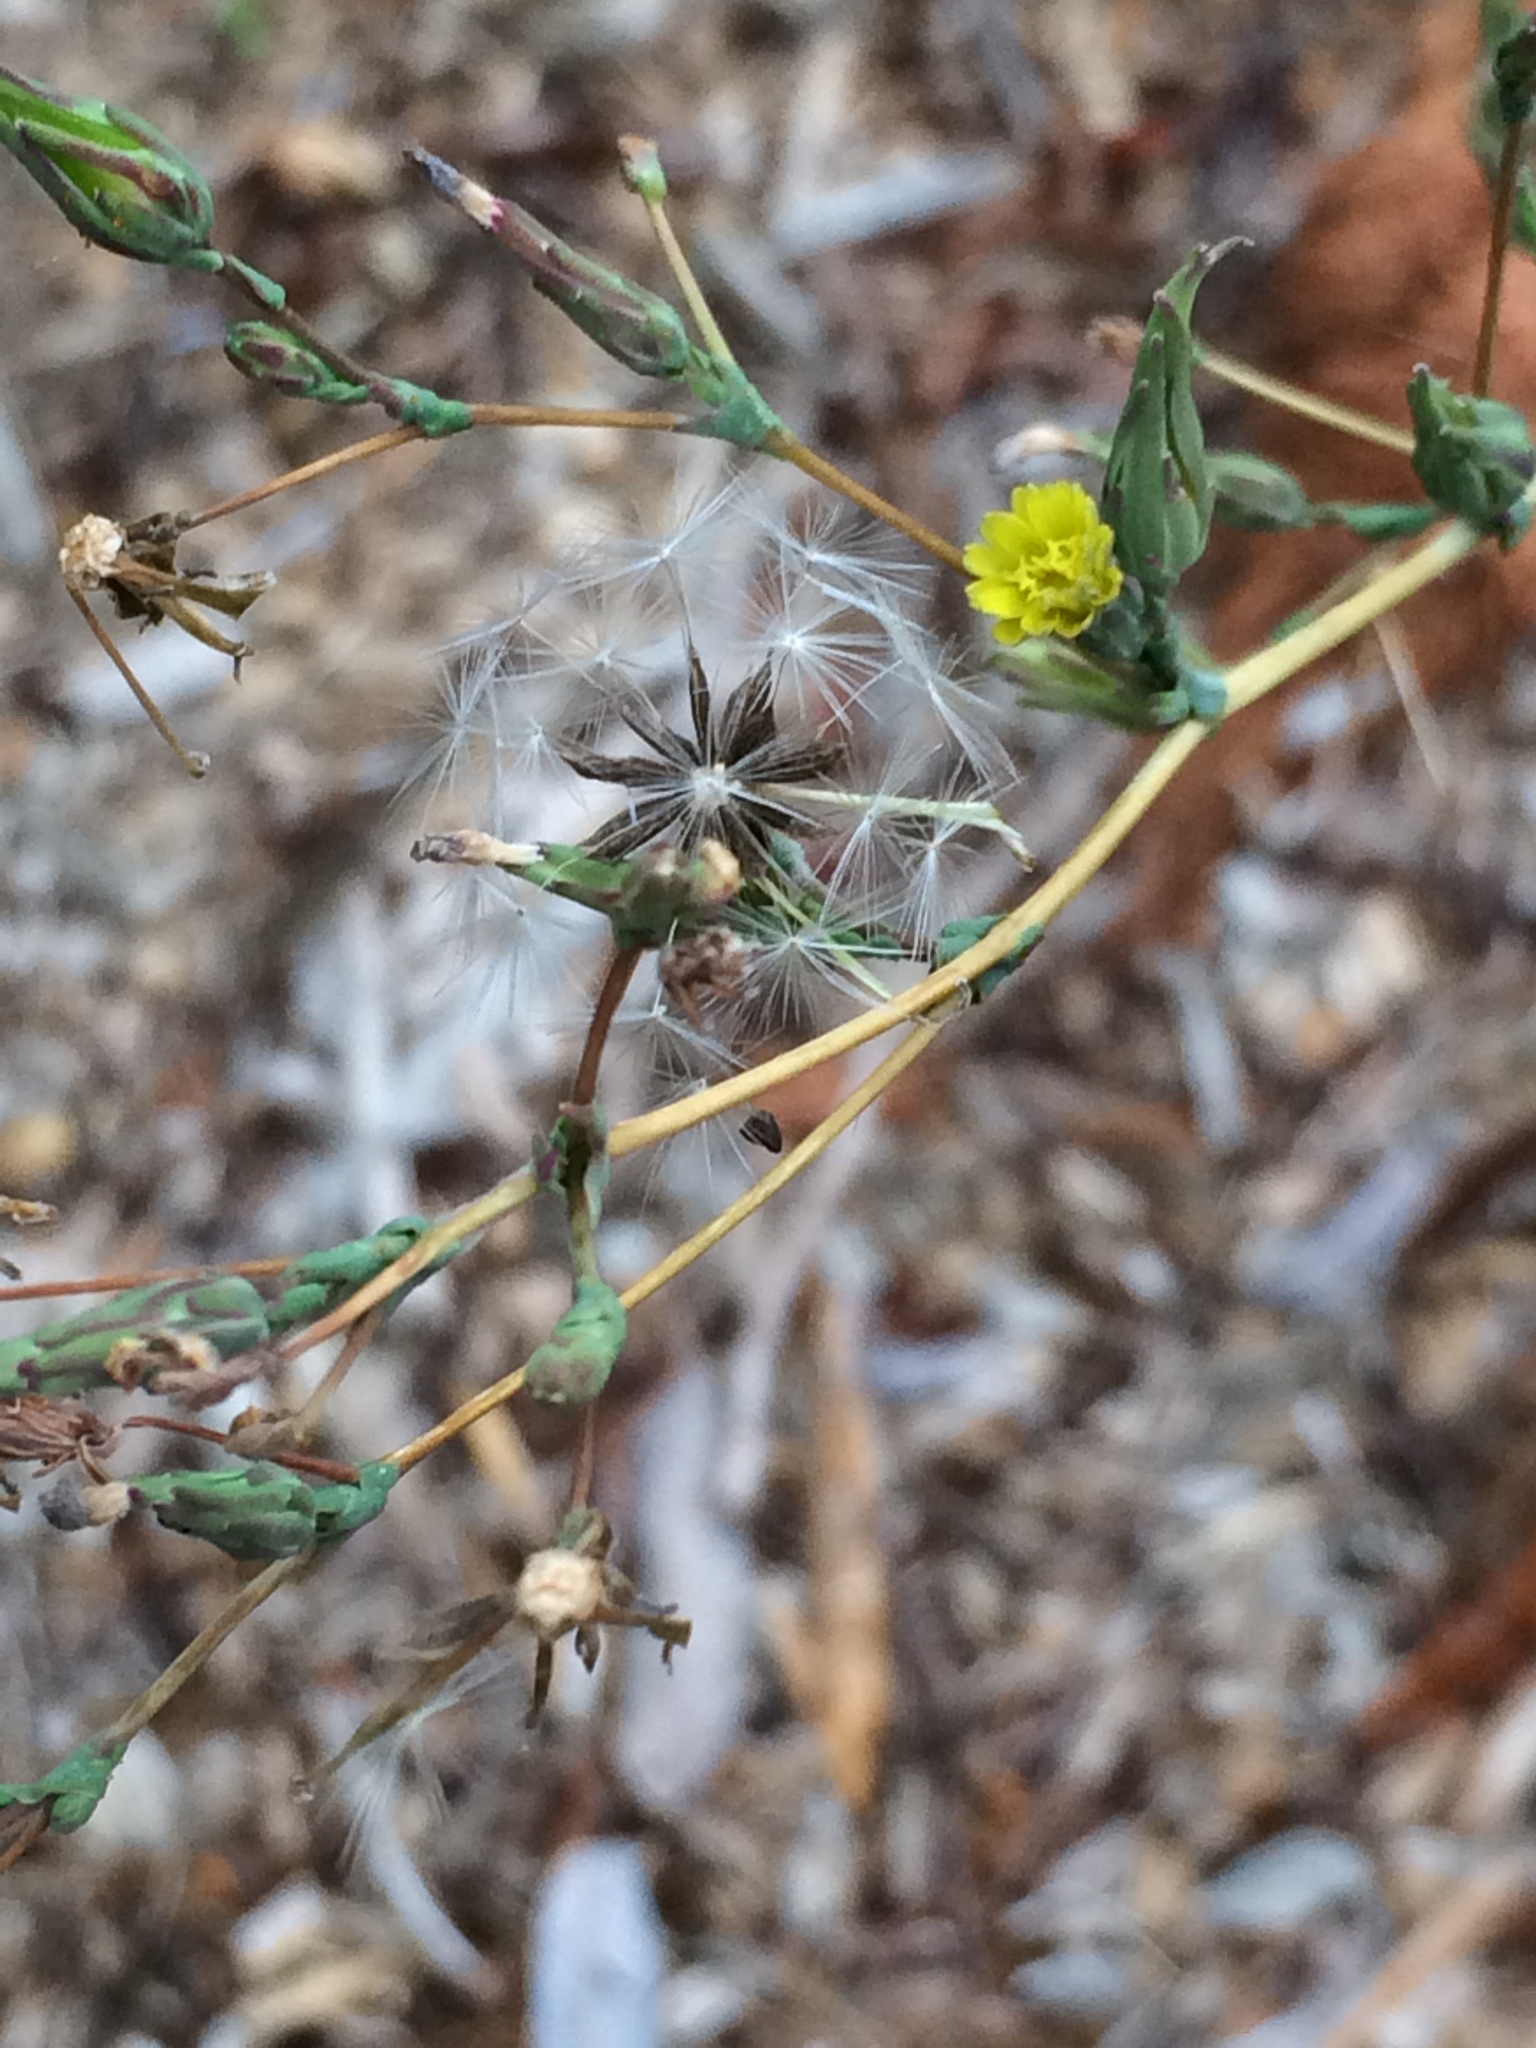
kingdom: Plantae
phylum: Tracheophyta
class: Magnoliopsida
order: Asterales
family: Asteraceae
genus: Lactuca
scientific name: Lactuca serriola
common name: Prickly lettuce
